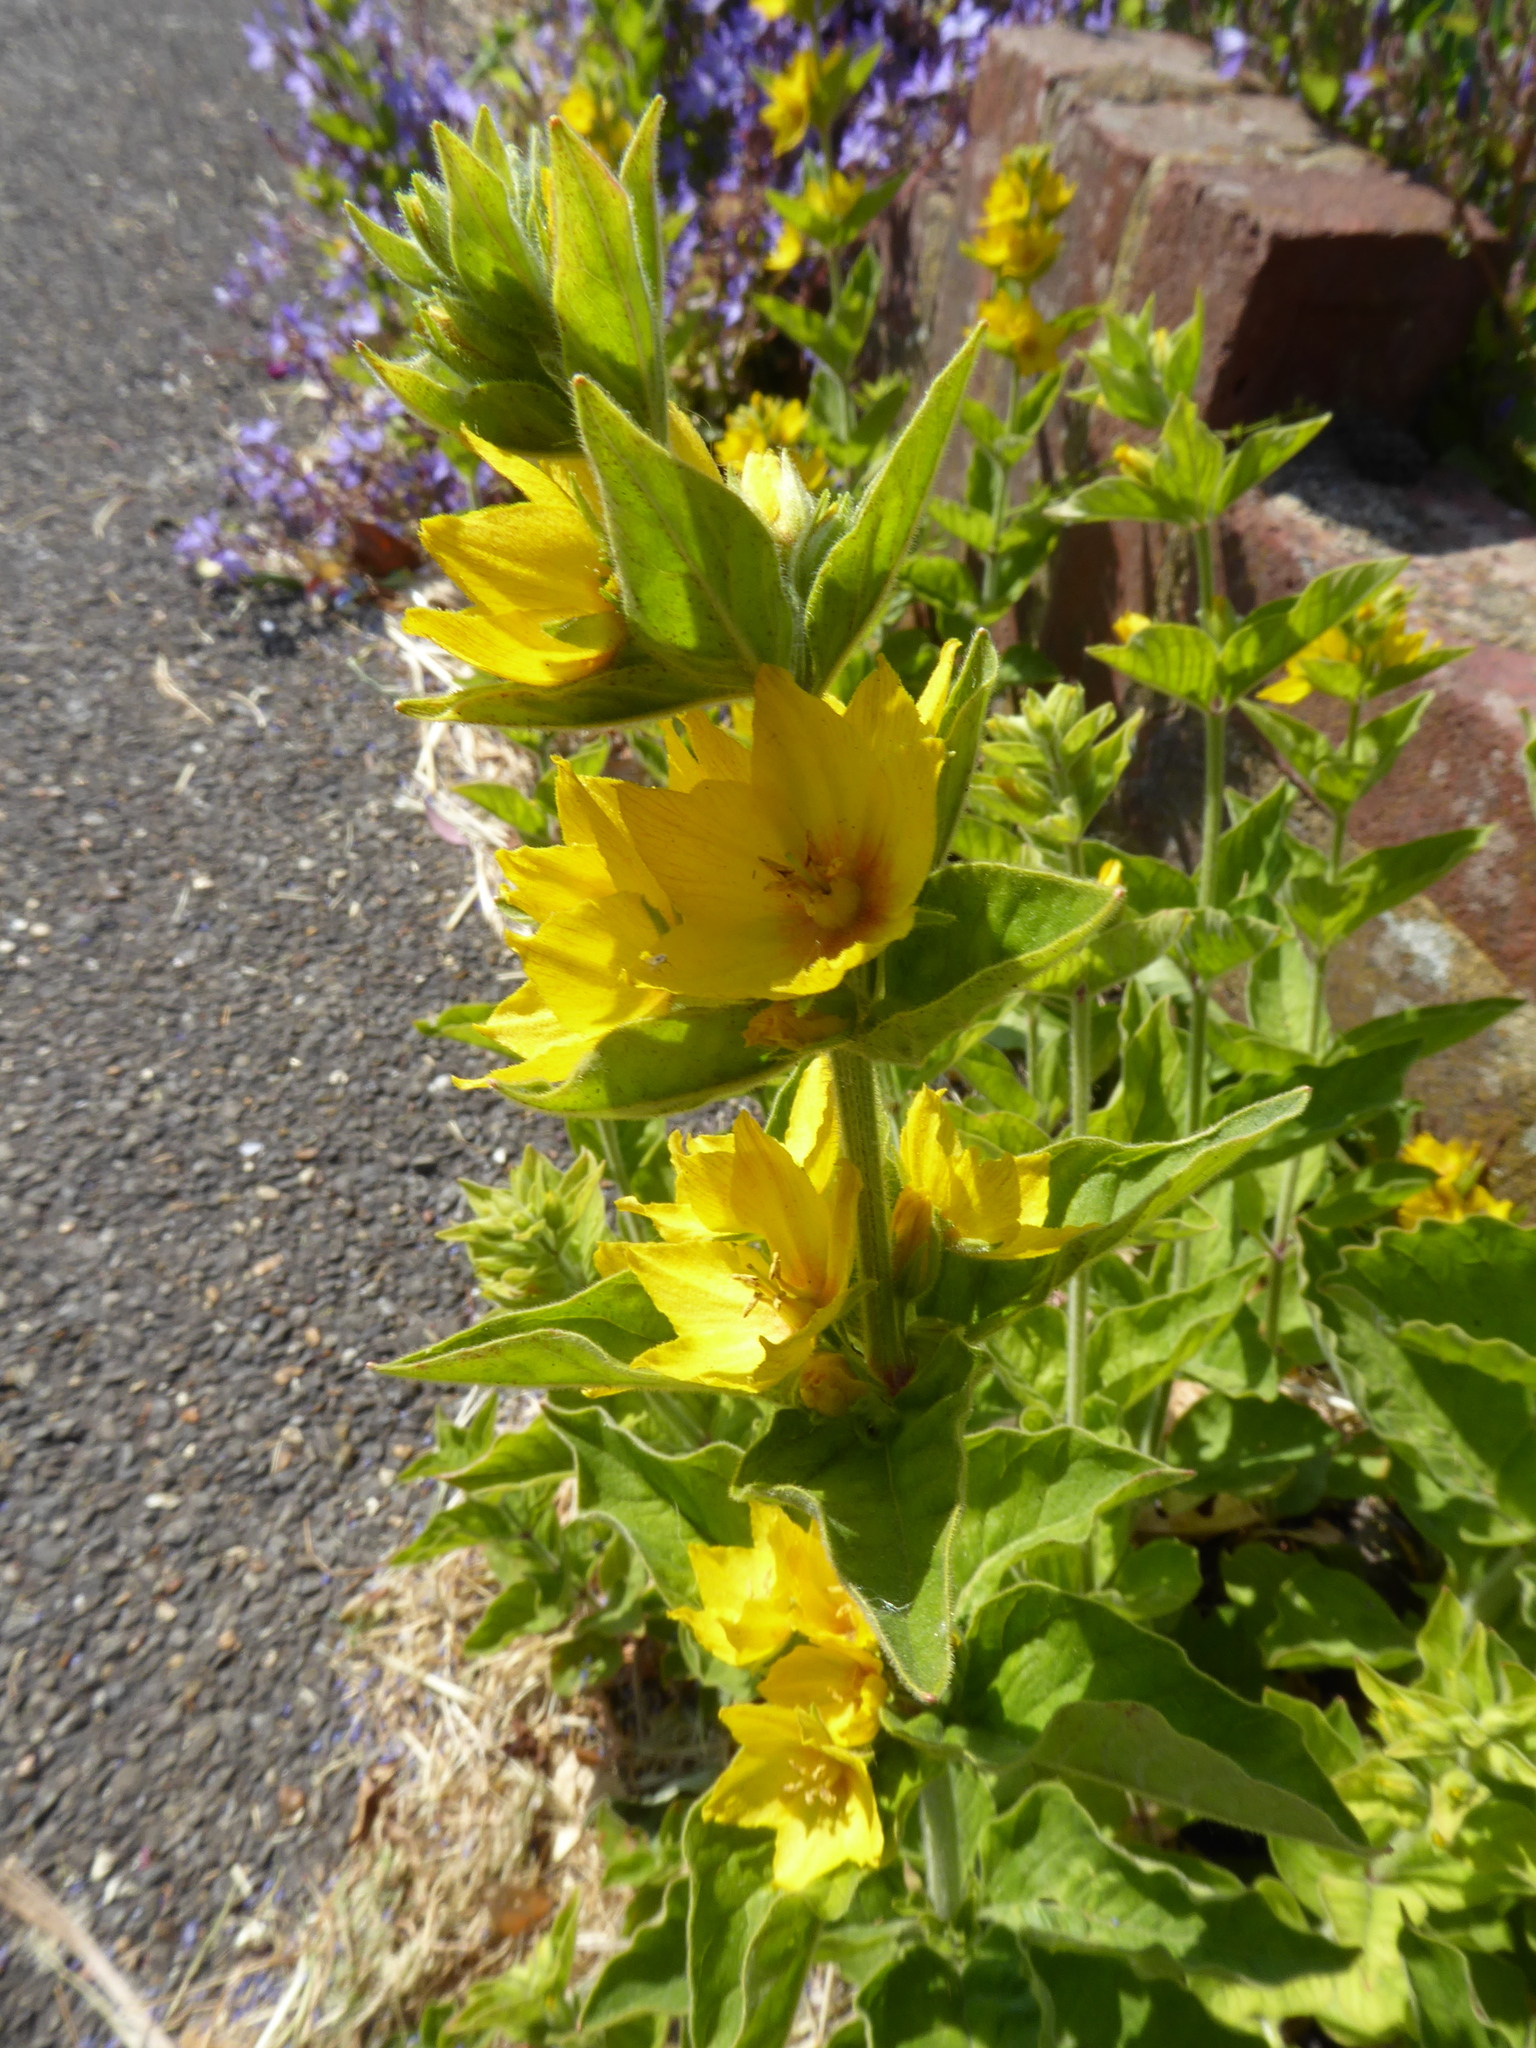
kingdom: Plantae
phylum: Tracheophyta
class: Magnoliopsida
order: Ericales
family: Primulaceae
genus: Lysimachia
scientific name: Lysimachia punctata
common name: Dotted loosestrife
